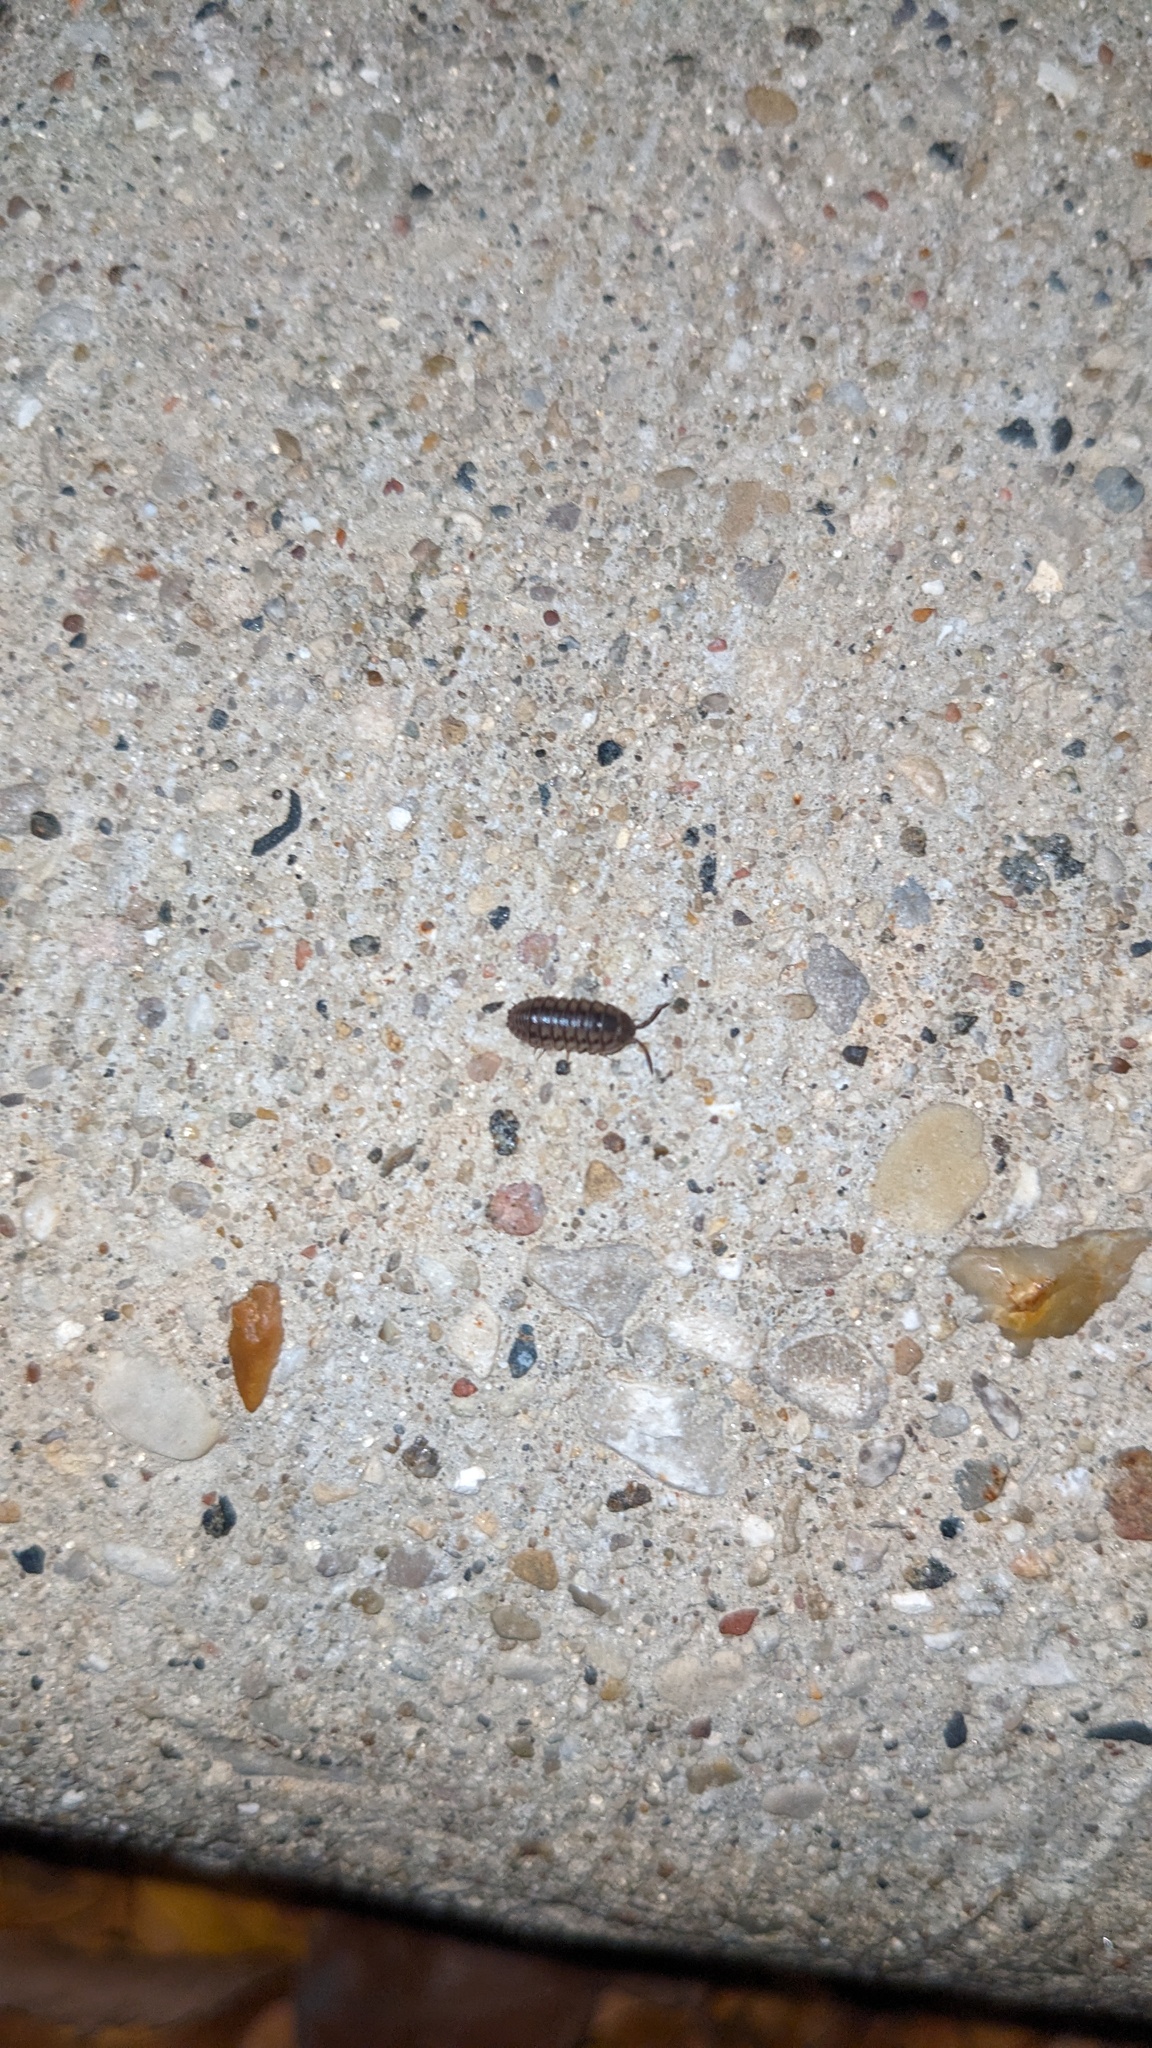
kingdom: Animalia
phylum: Arthropoda
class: Malacostraca
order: Isopoda
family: Armadillidiidae
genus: Armadillidium
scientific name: Armadillidium nasatum
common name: Isopod
